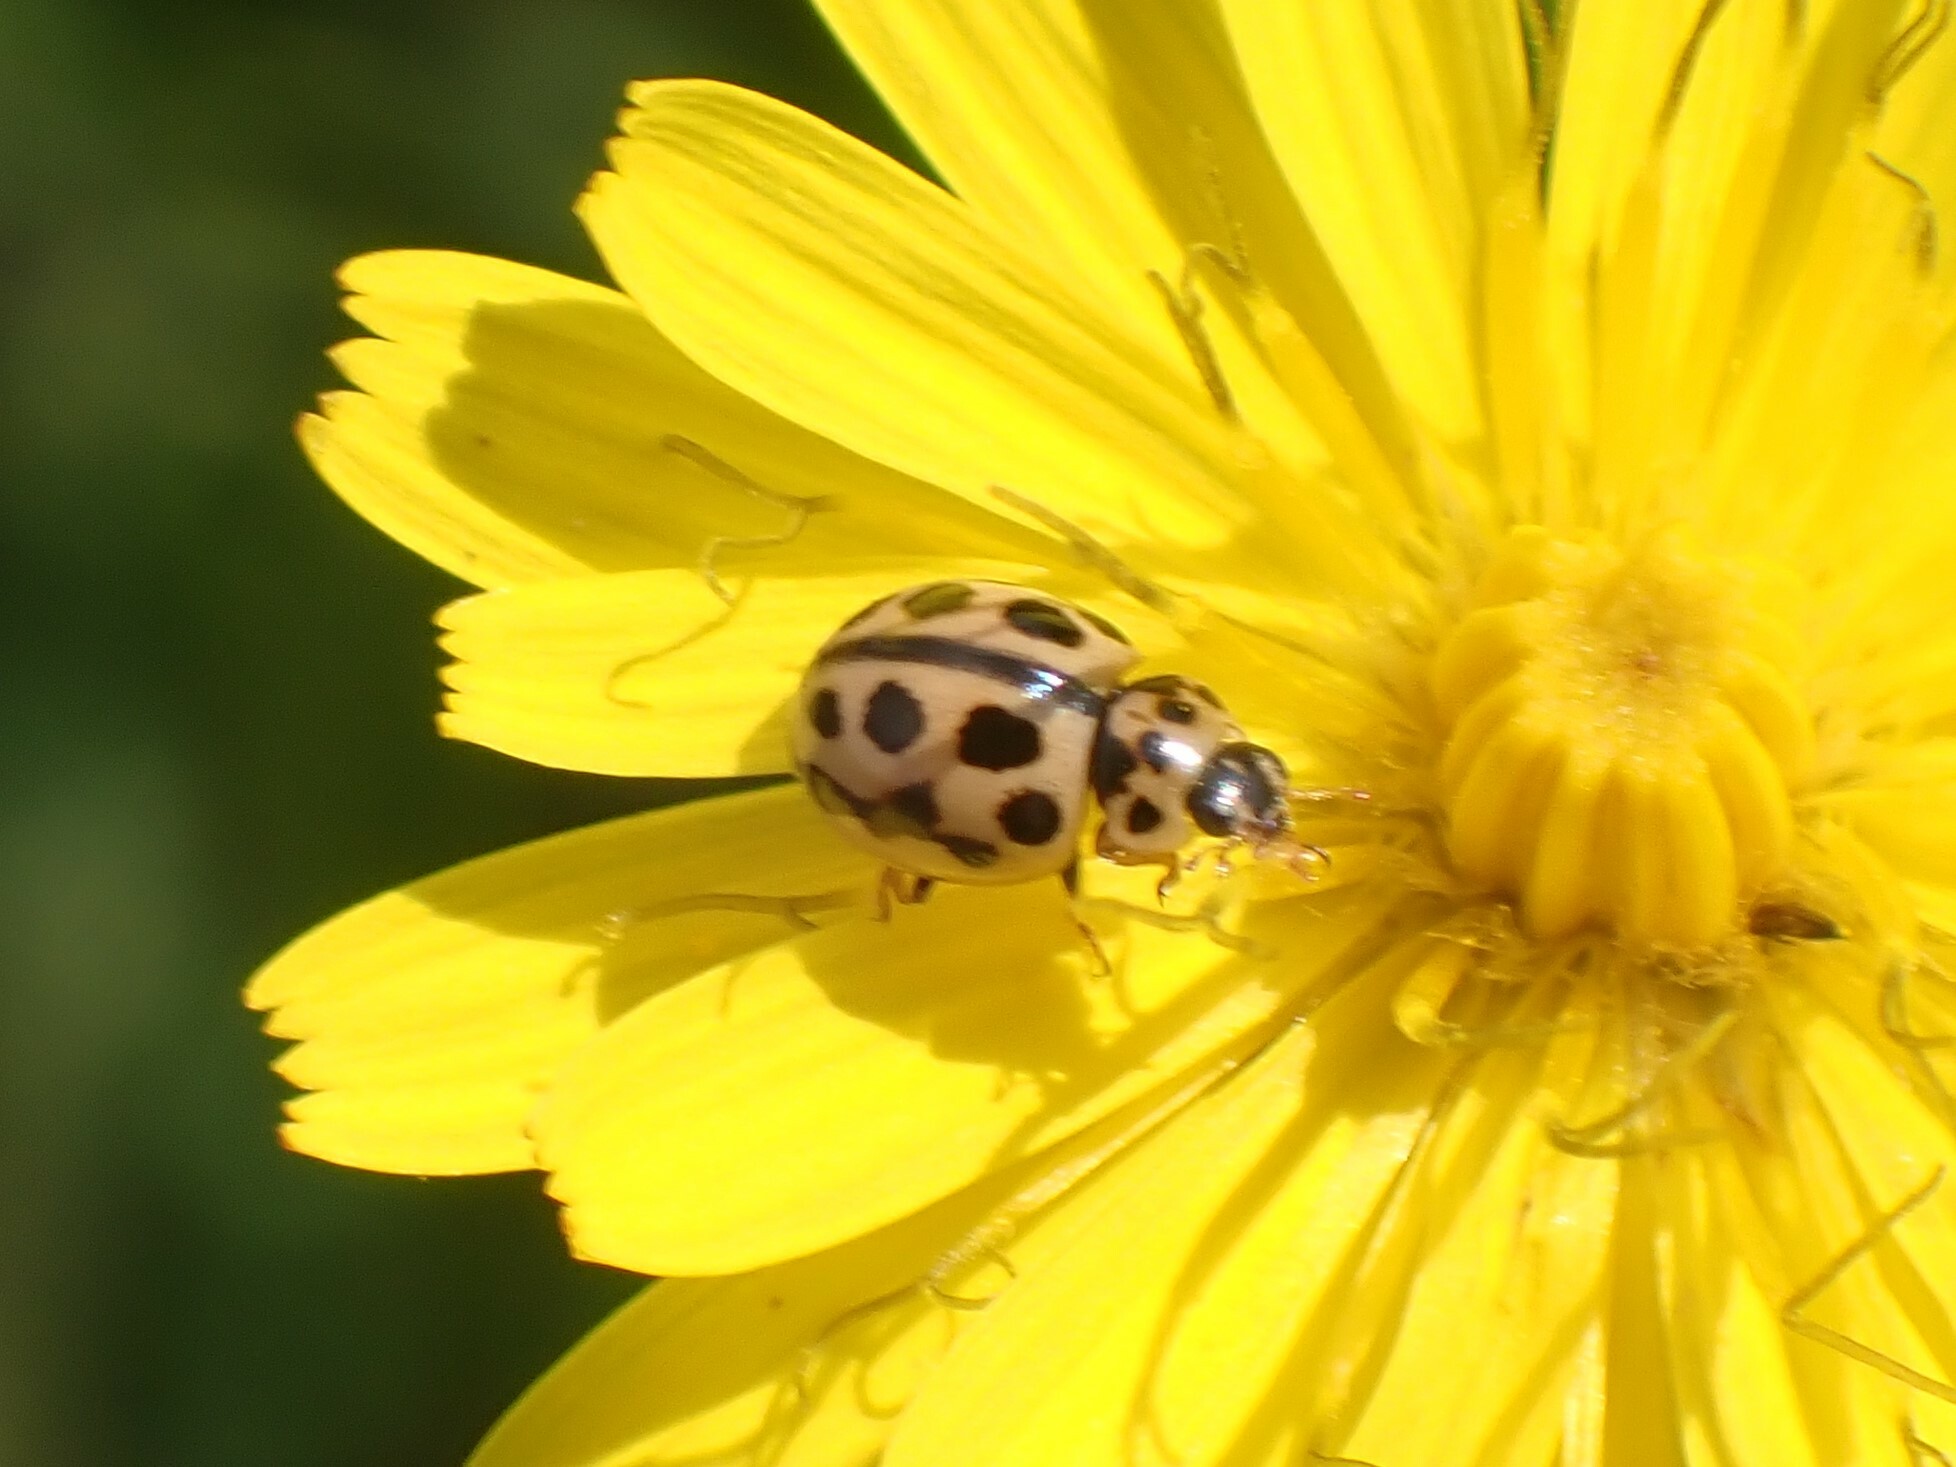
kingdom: Animalia
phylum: Arthropoda
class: Insecta
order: Coleoptera
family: Coccinellidae
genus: Tytthaspis
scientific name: Tytthaspis sedecimpunctata
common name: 16-spot ladybird
